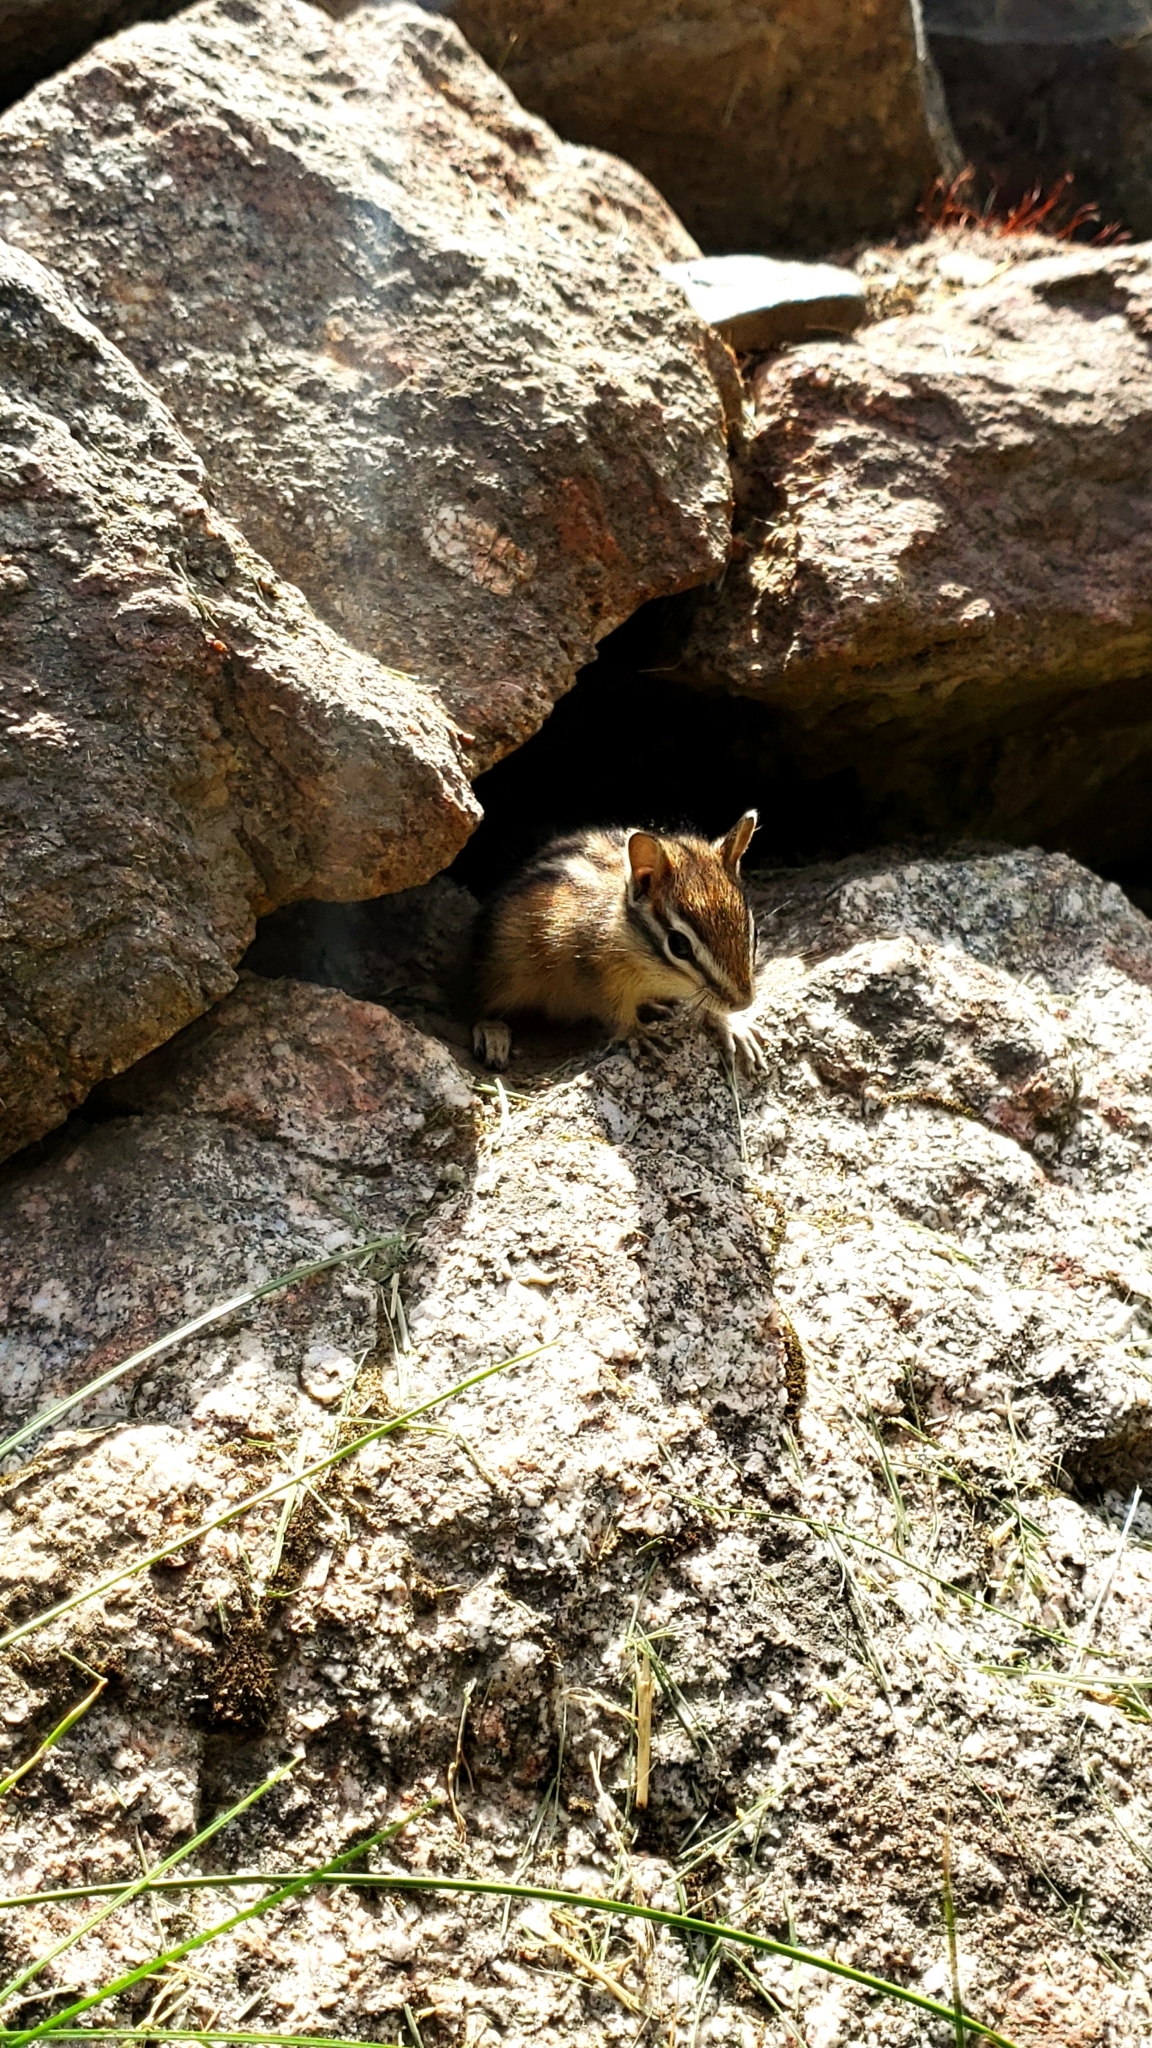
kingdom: Animalia
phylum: Chordata
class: Mammalia
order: Rodentia
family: Sciuridae
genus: Tamias
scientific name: Tamias minimus
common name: Least chipmunk
